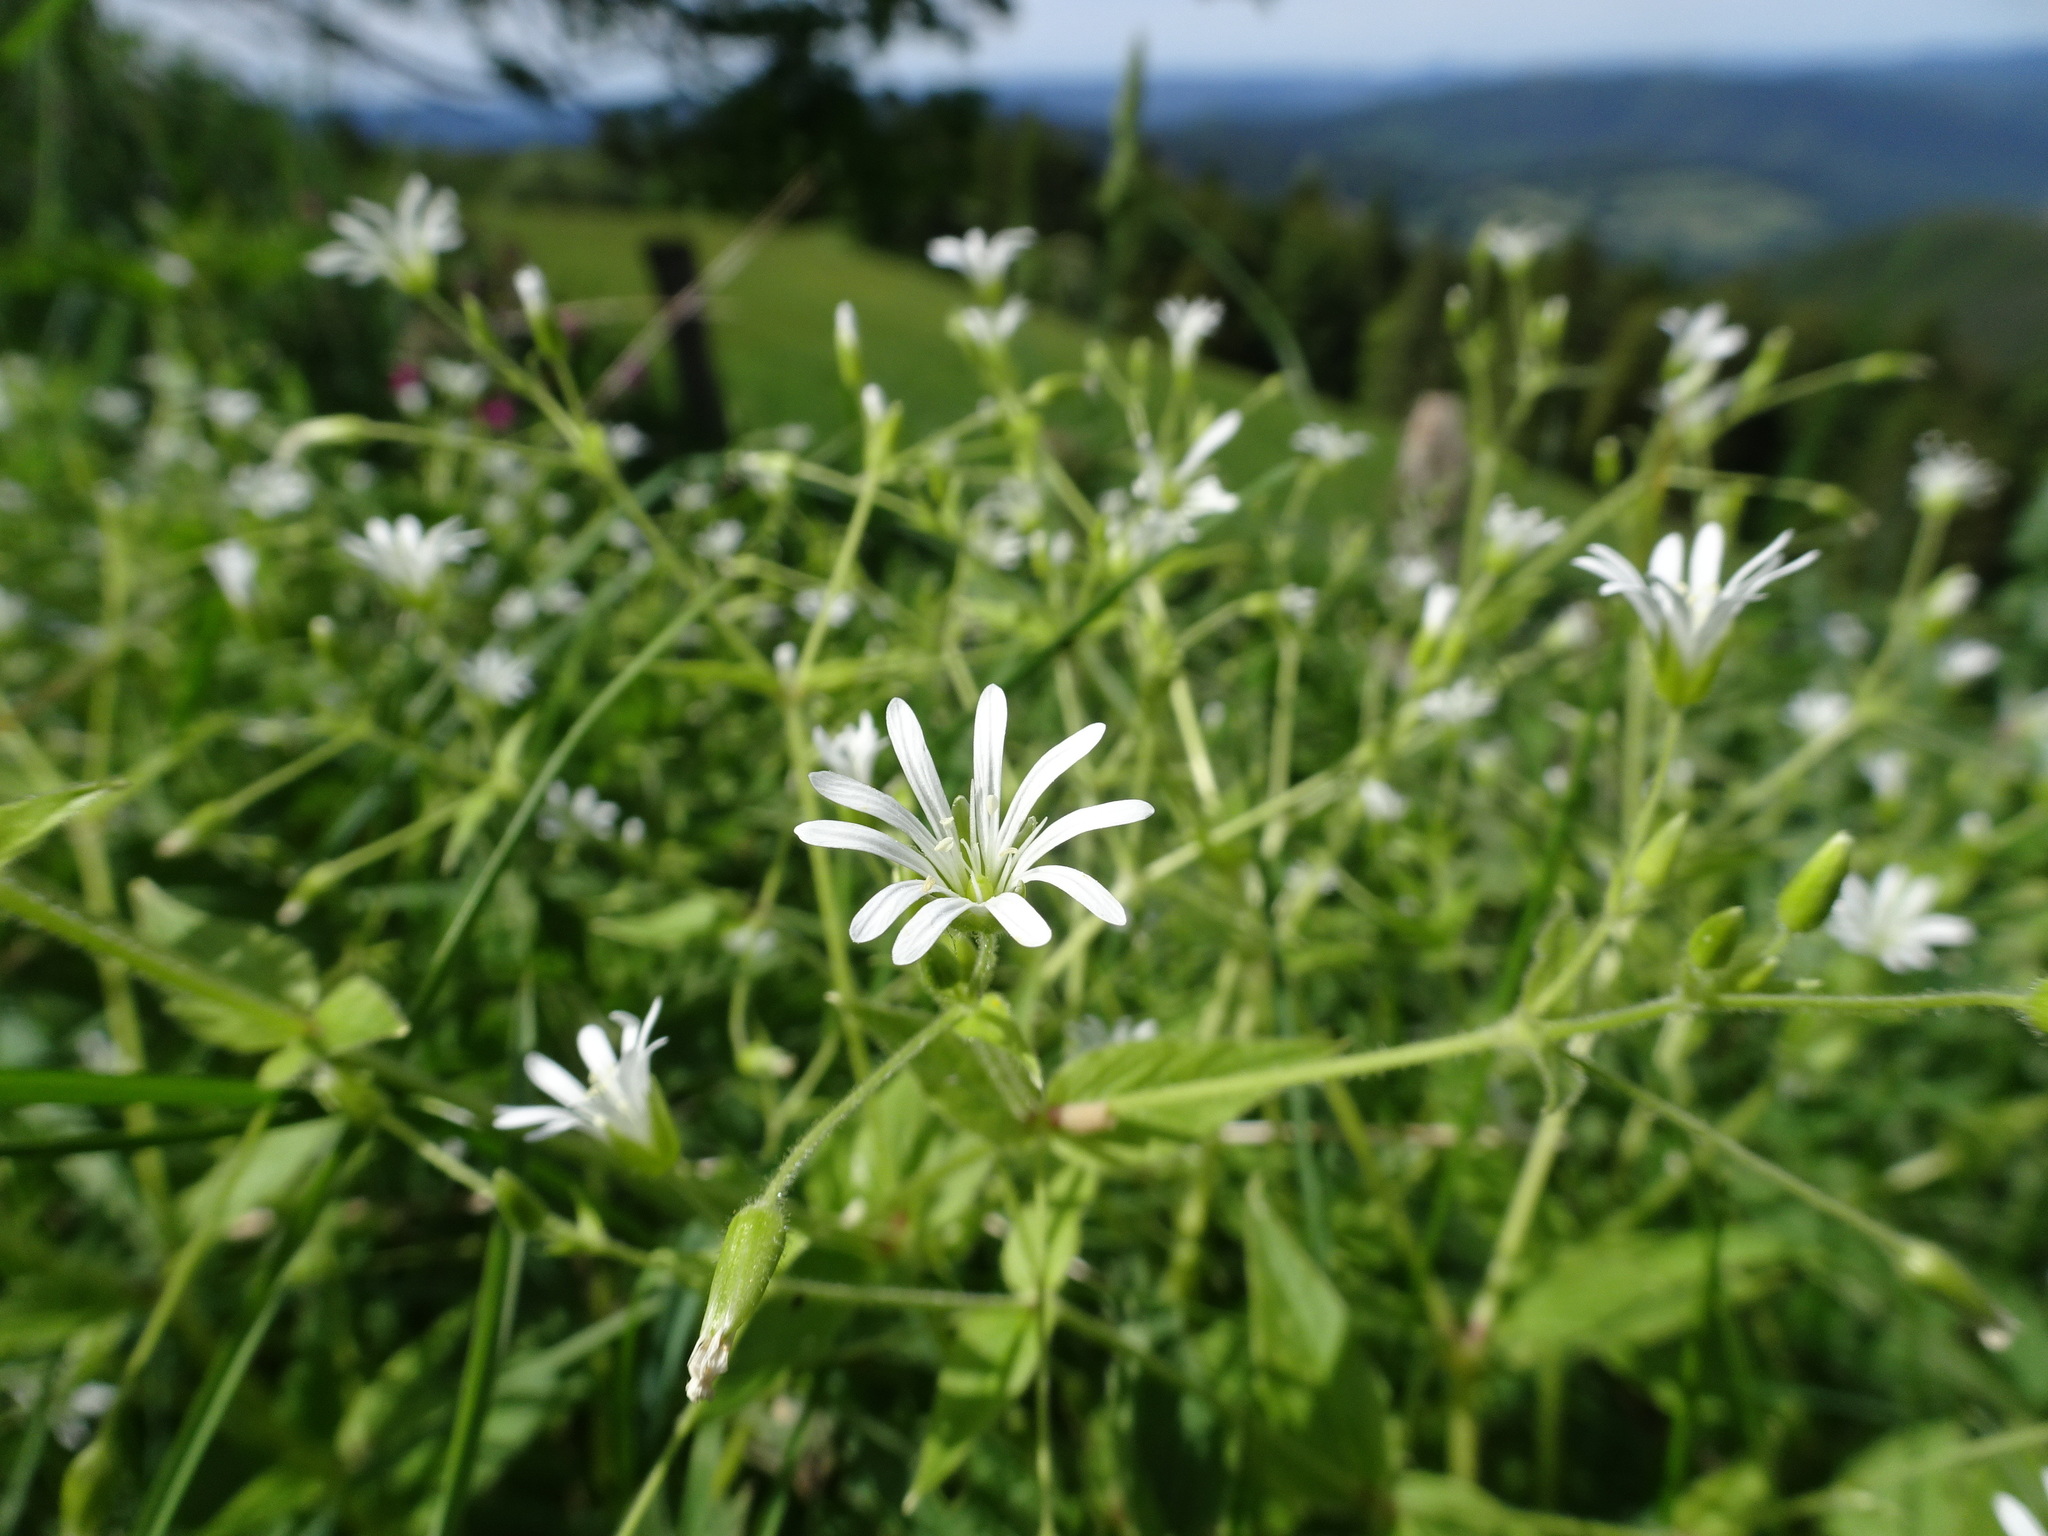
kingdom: Plantae
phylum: Tracheophyta
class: Magnoliopsida
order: Caryophyllales
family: Caryophyllaceae
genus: Stellaria
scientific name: Stellaria nemorum
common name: Wood stitchwort
